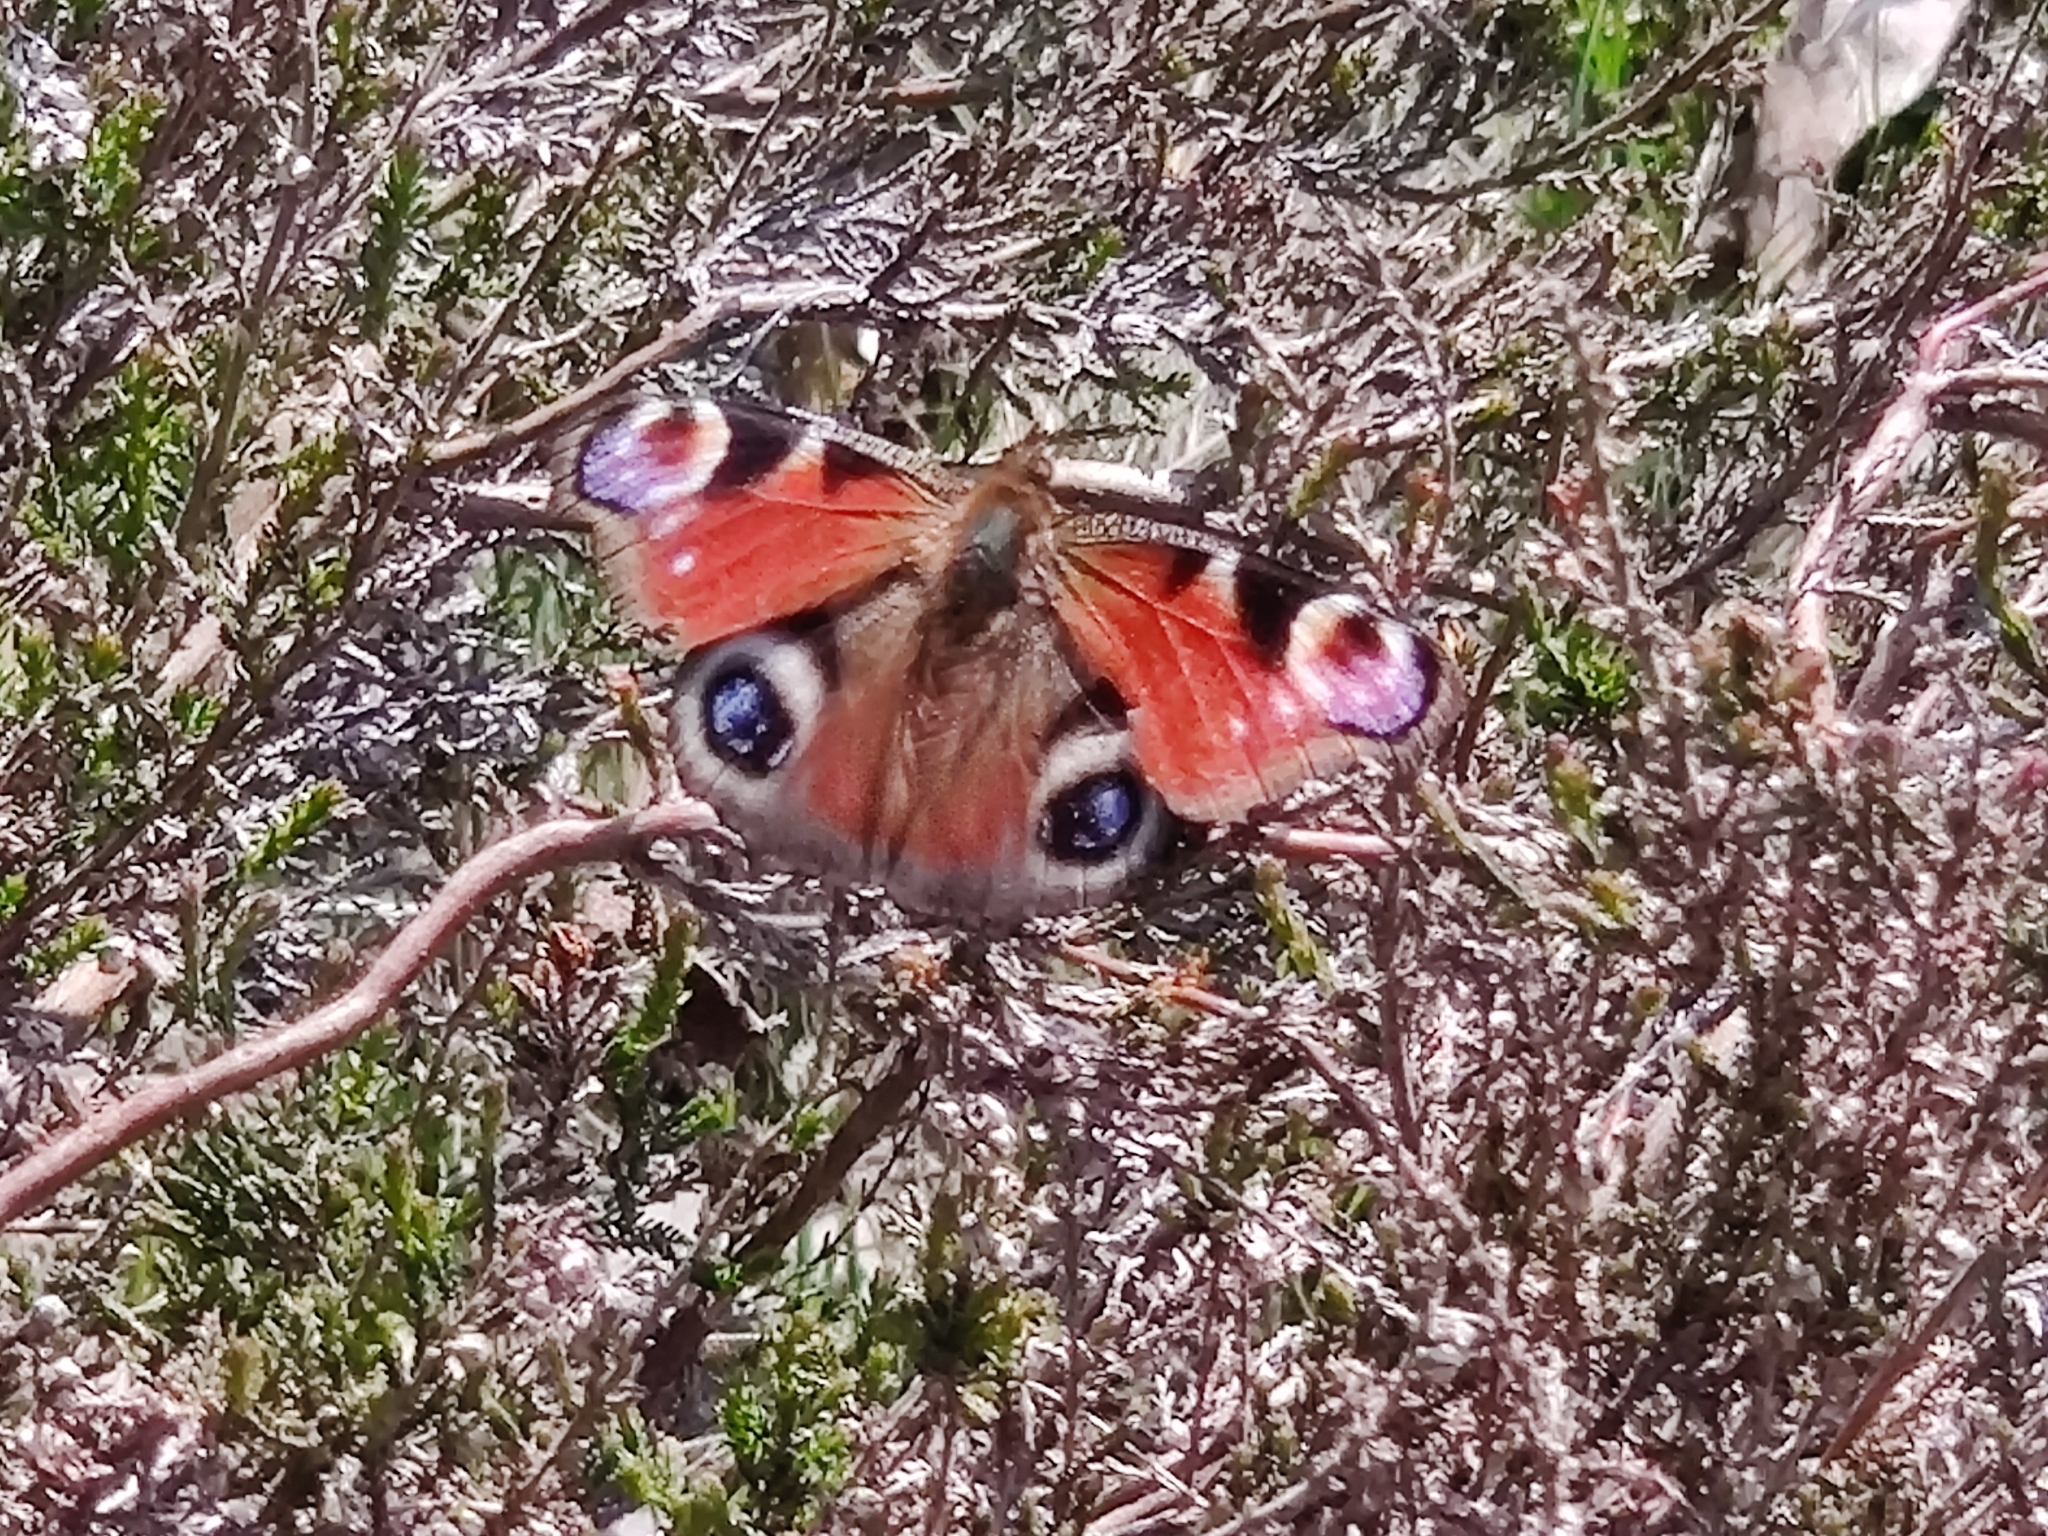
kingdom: Animalia
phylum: Arthropoda
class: Insecta
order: Lepidoptera
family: Nymphalidae
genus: Aglais
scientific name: Aglais io
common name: Peacock
